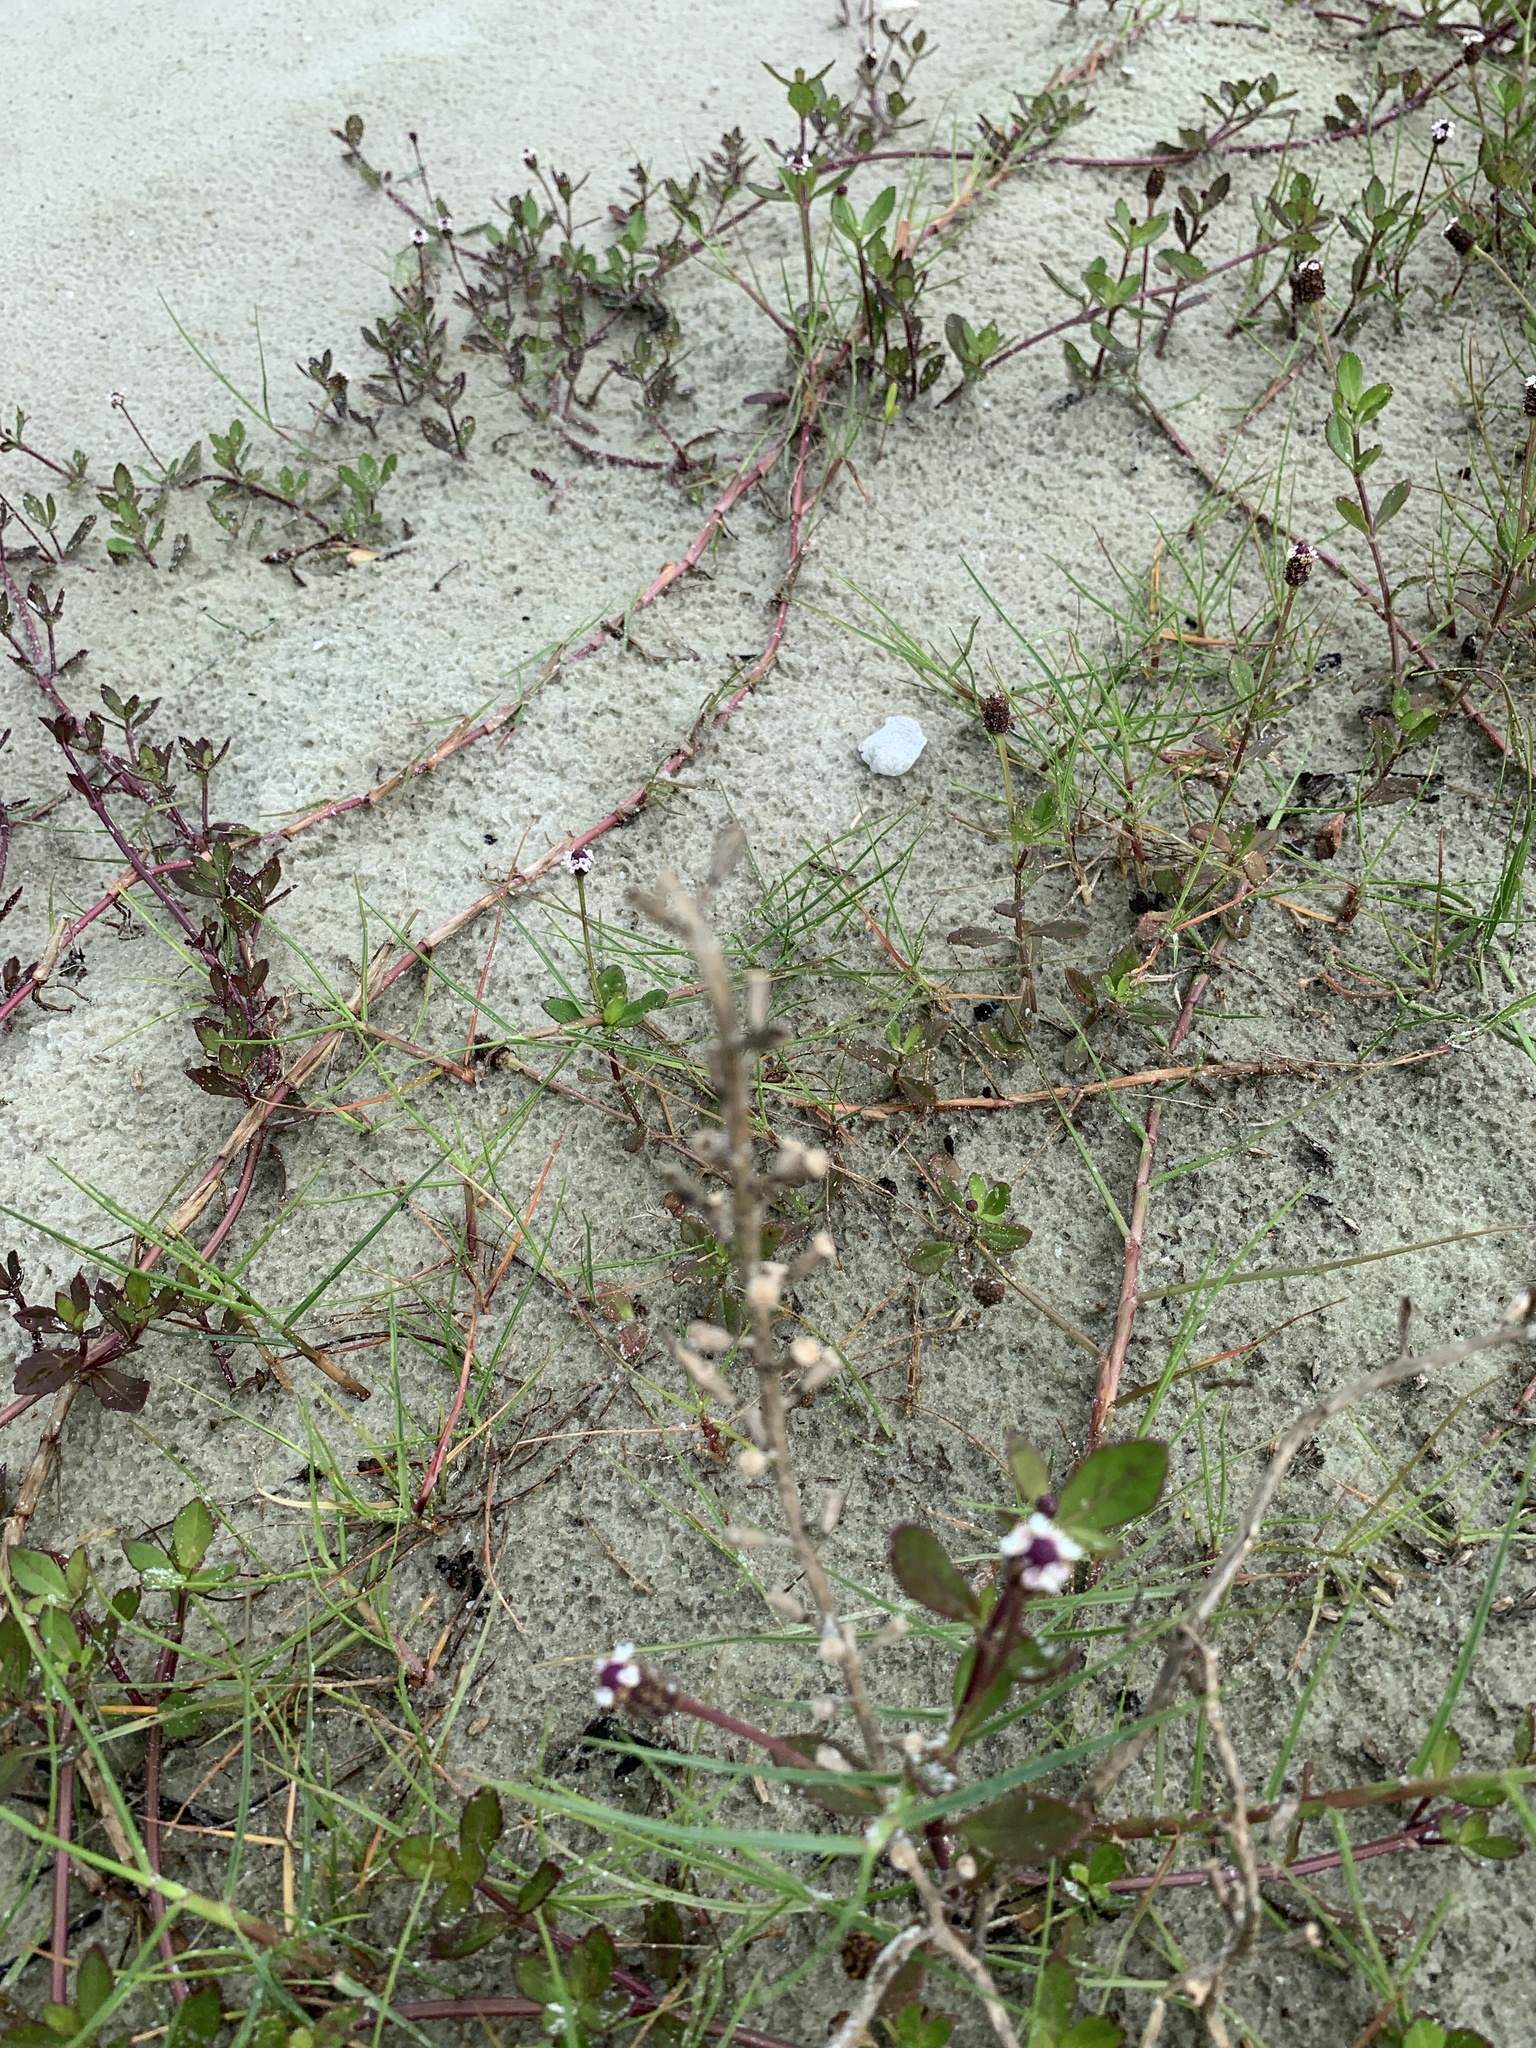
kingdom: Plantae
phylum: Tracheophyta
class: Magnoliopsida
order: Lamiales
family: Verbenaceae
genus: Phyla
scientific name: Phyla nodiflora
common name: Frogfruit
